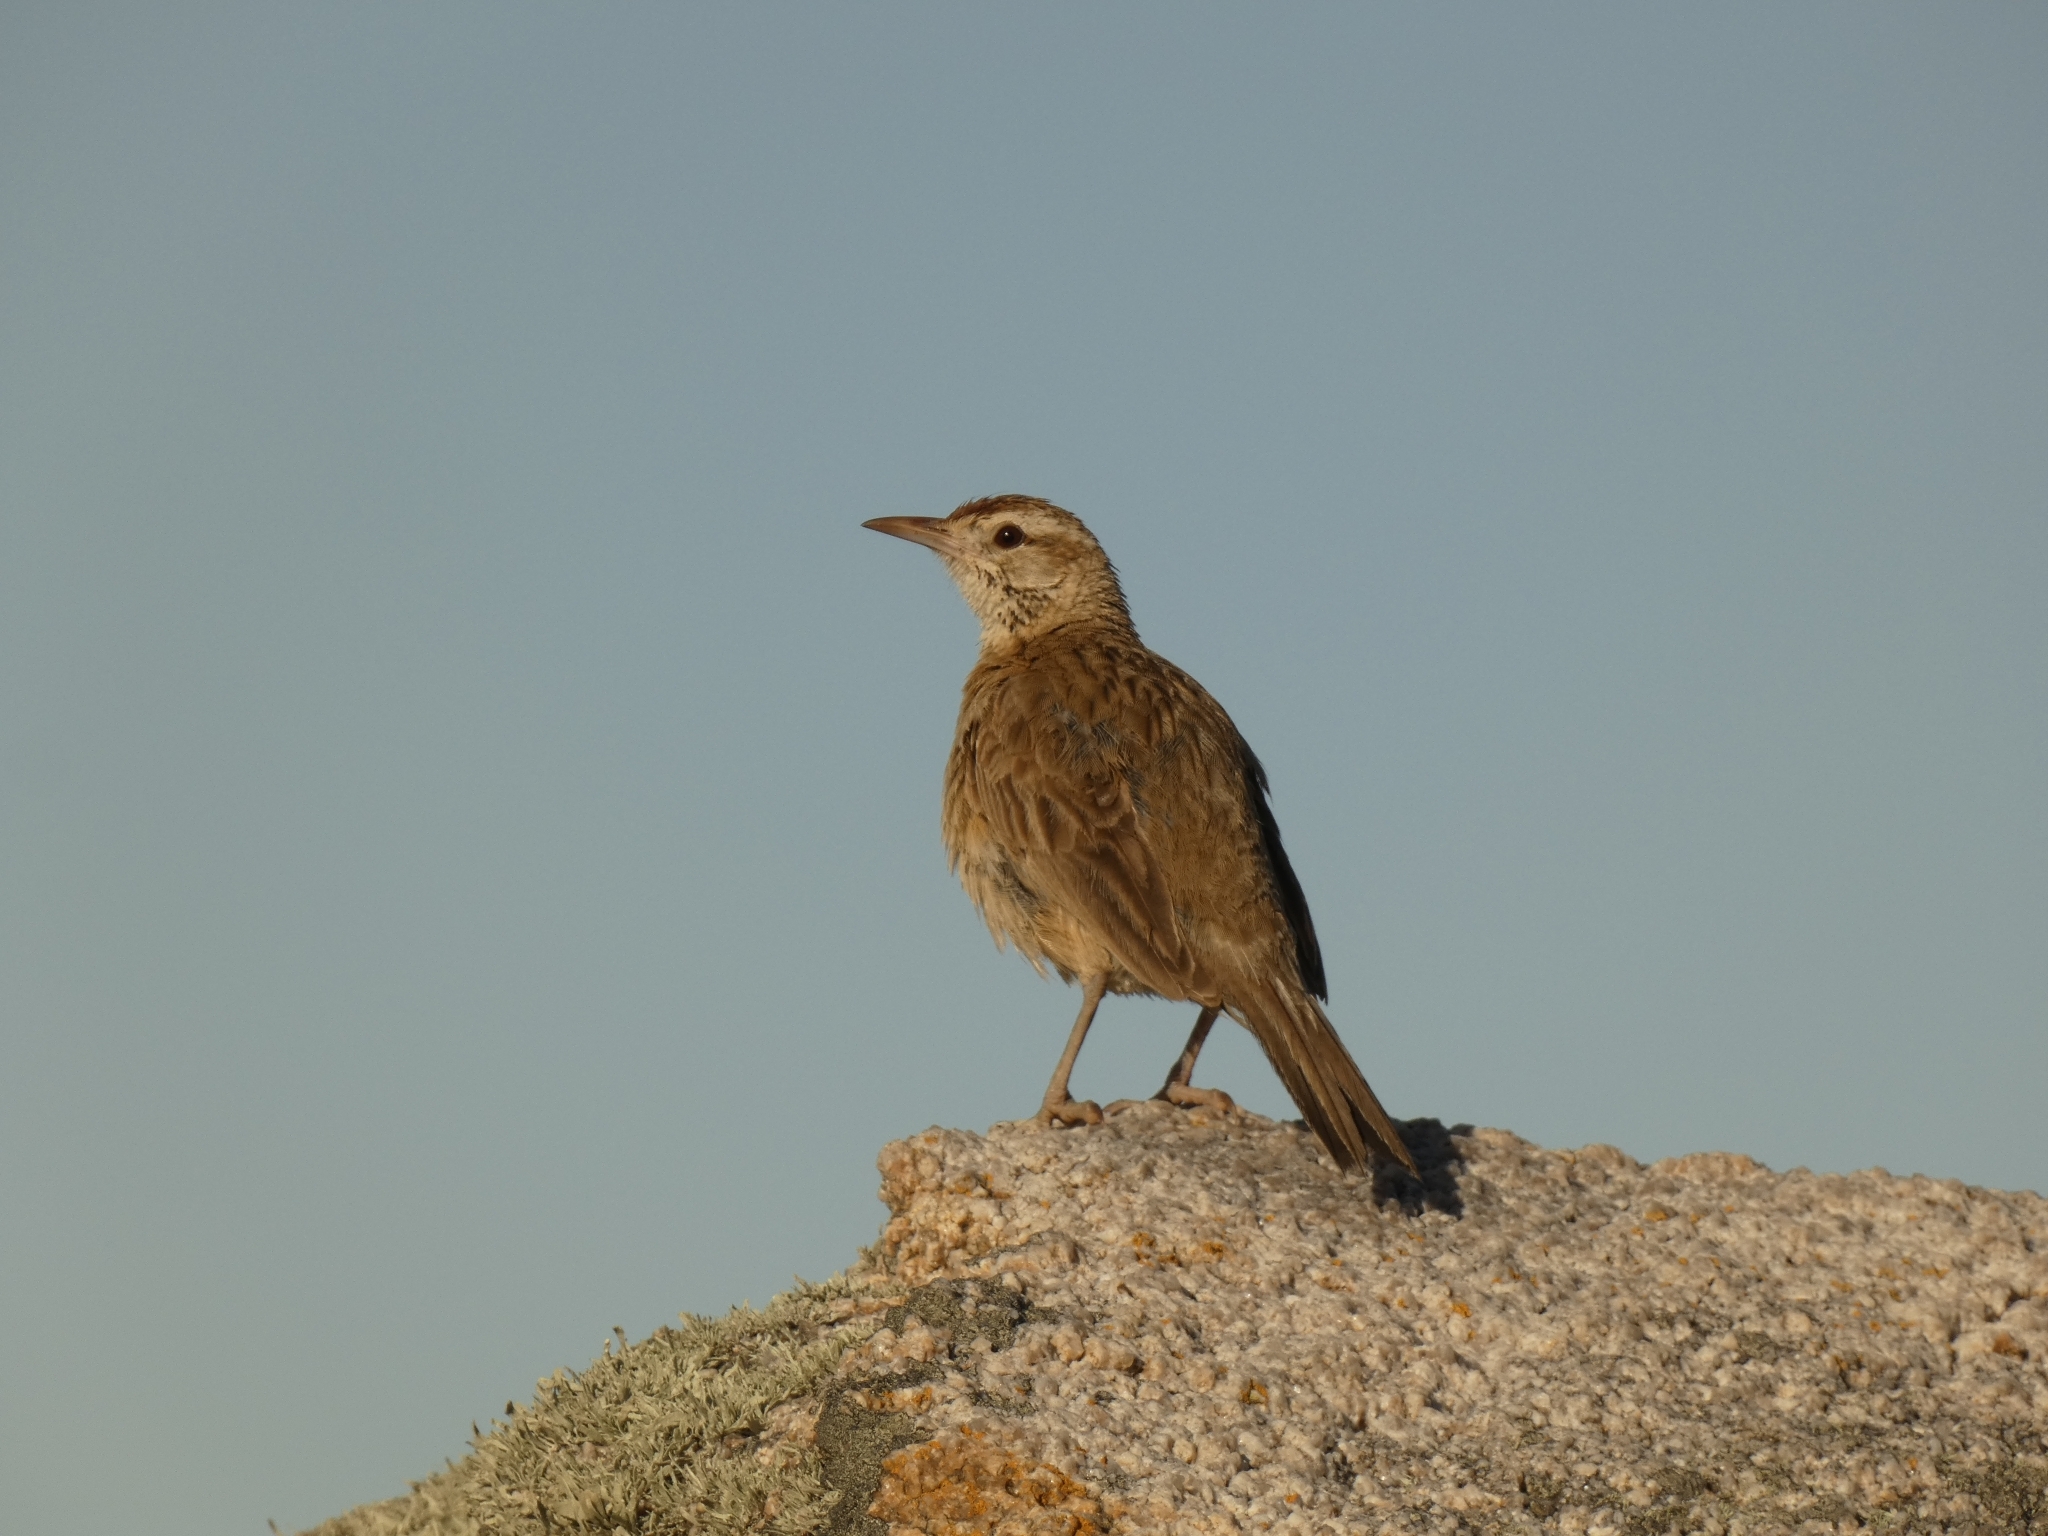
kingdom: Animalia
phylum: Chordata
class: Aves
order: Passeriformes
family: Furnariidae
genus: Anumbius
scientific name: Anumbius annumbi
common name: Firewood-gatherer
